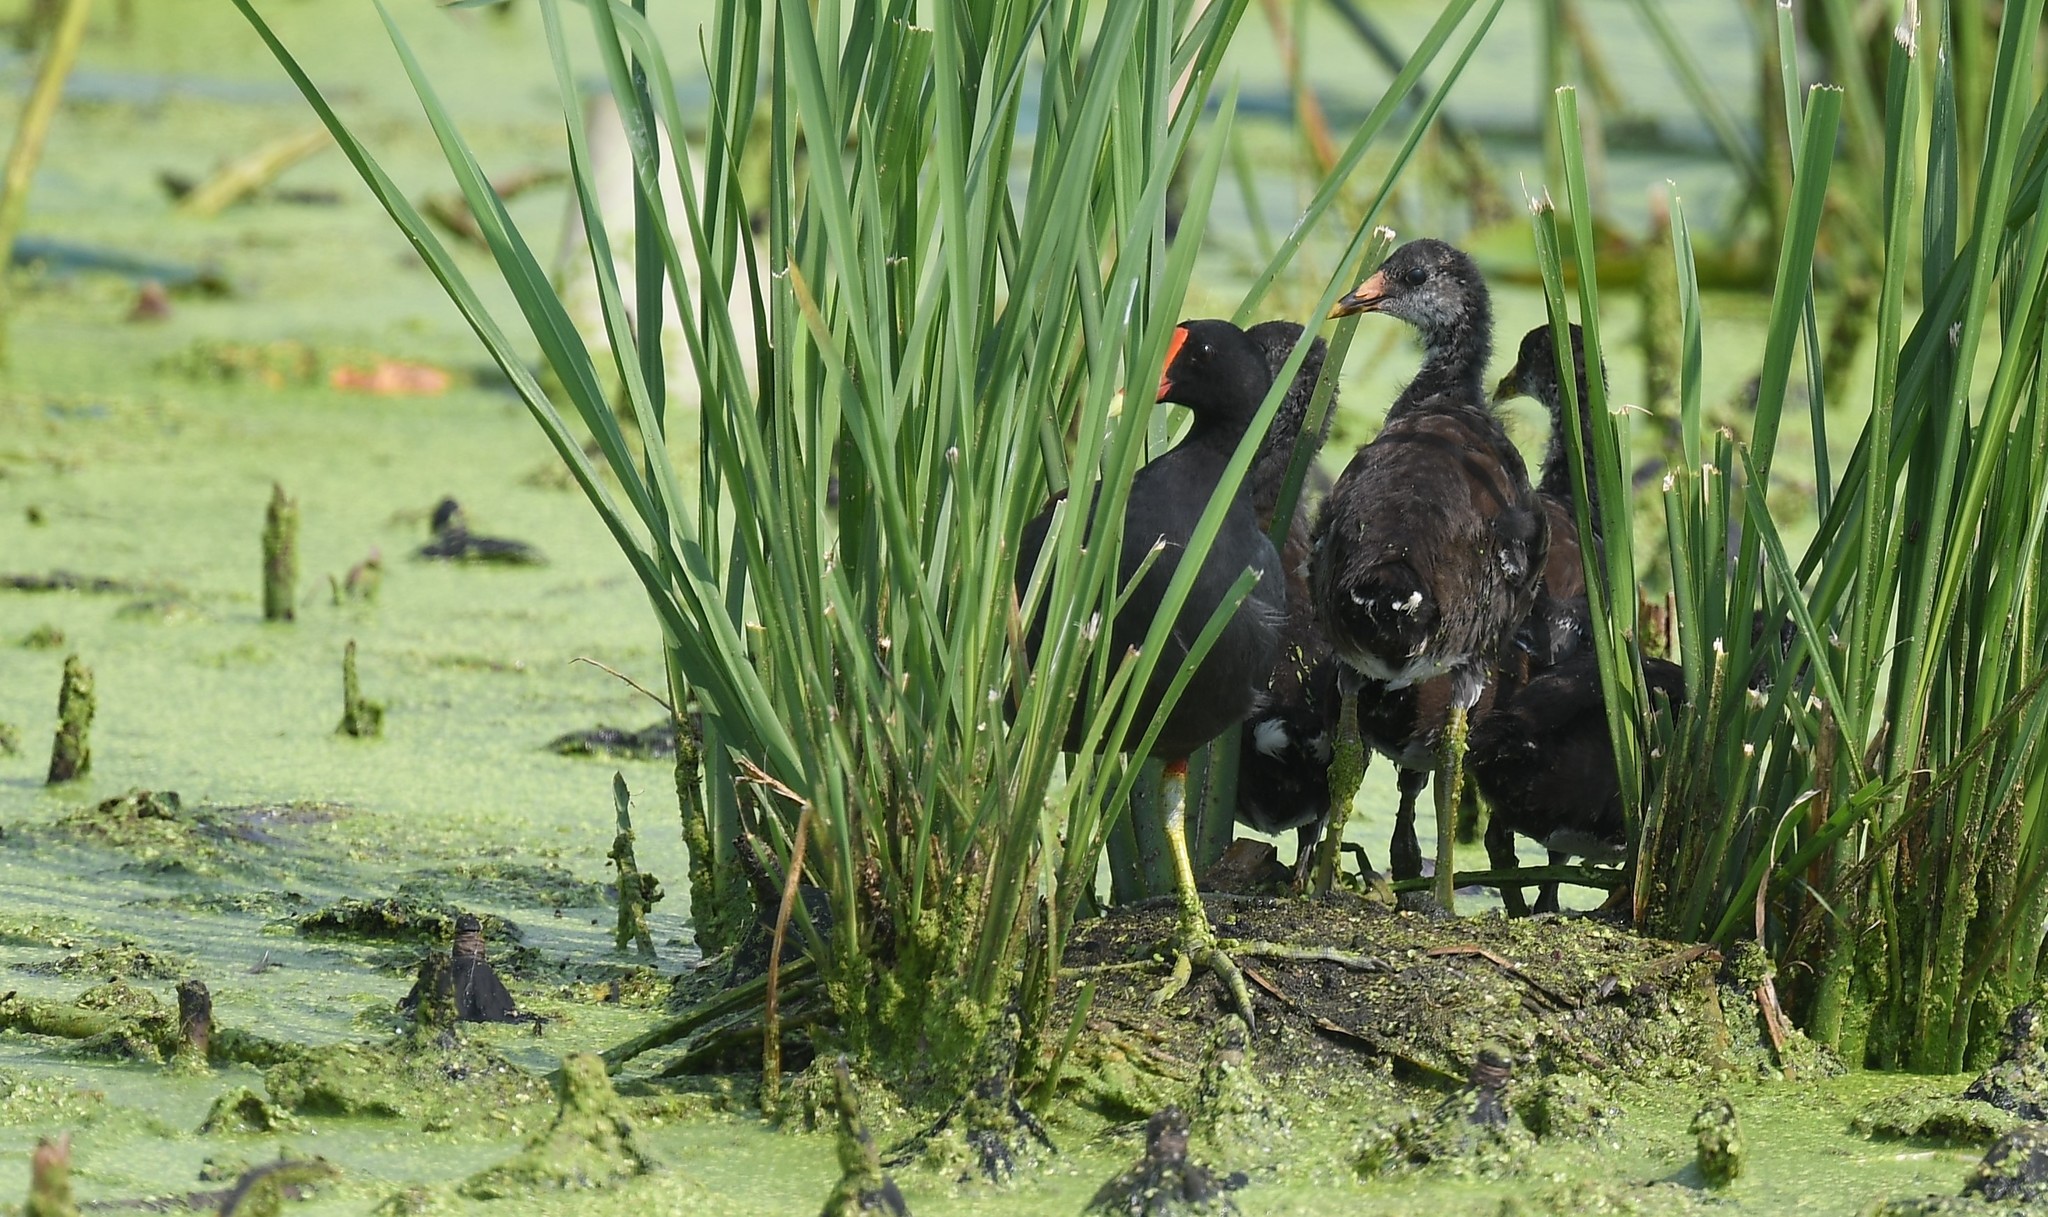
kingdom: Animalia
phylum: Chordata
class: Aves
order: Gruiformes
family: Rallidae
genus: Gallinula
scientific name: Gallinula chloropus
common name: Common moorhen
